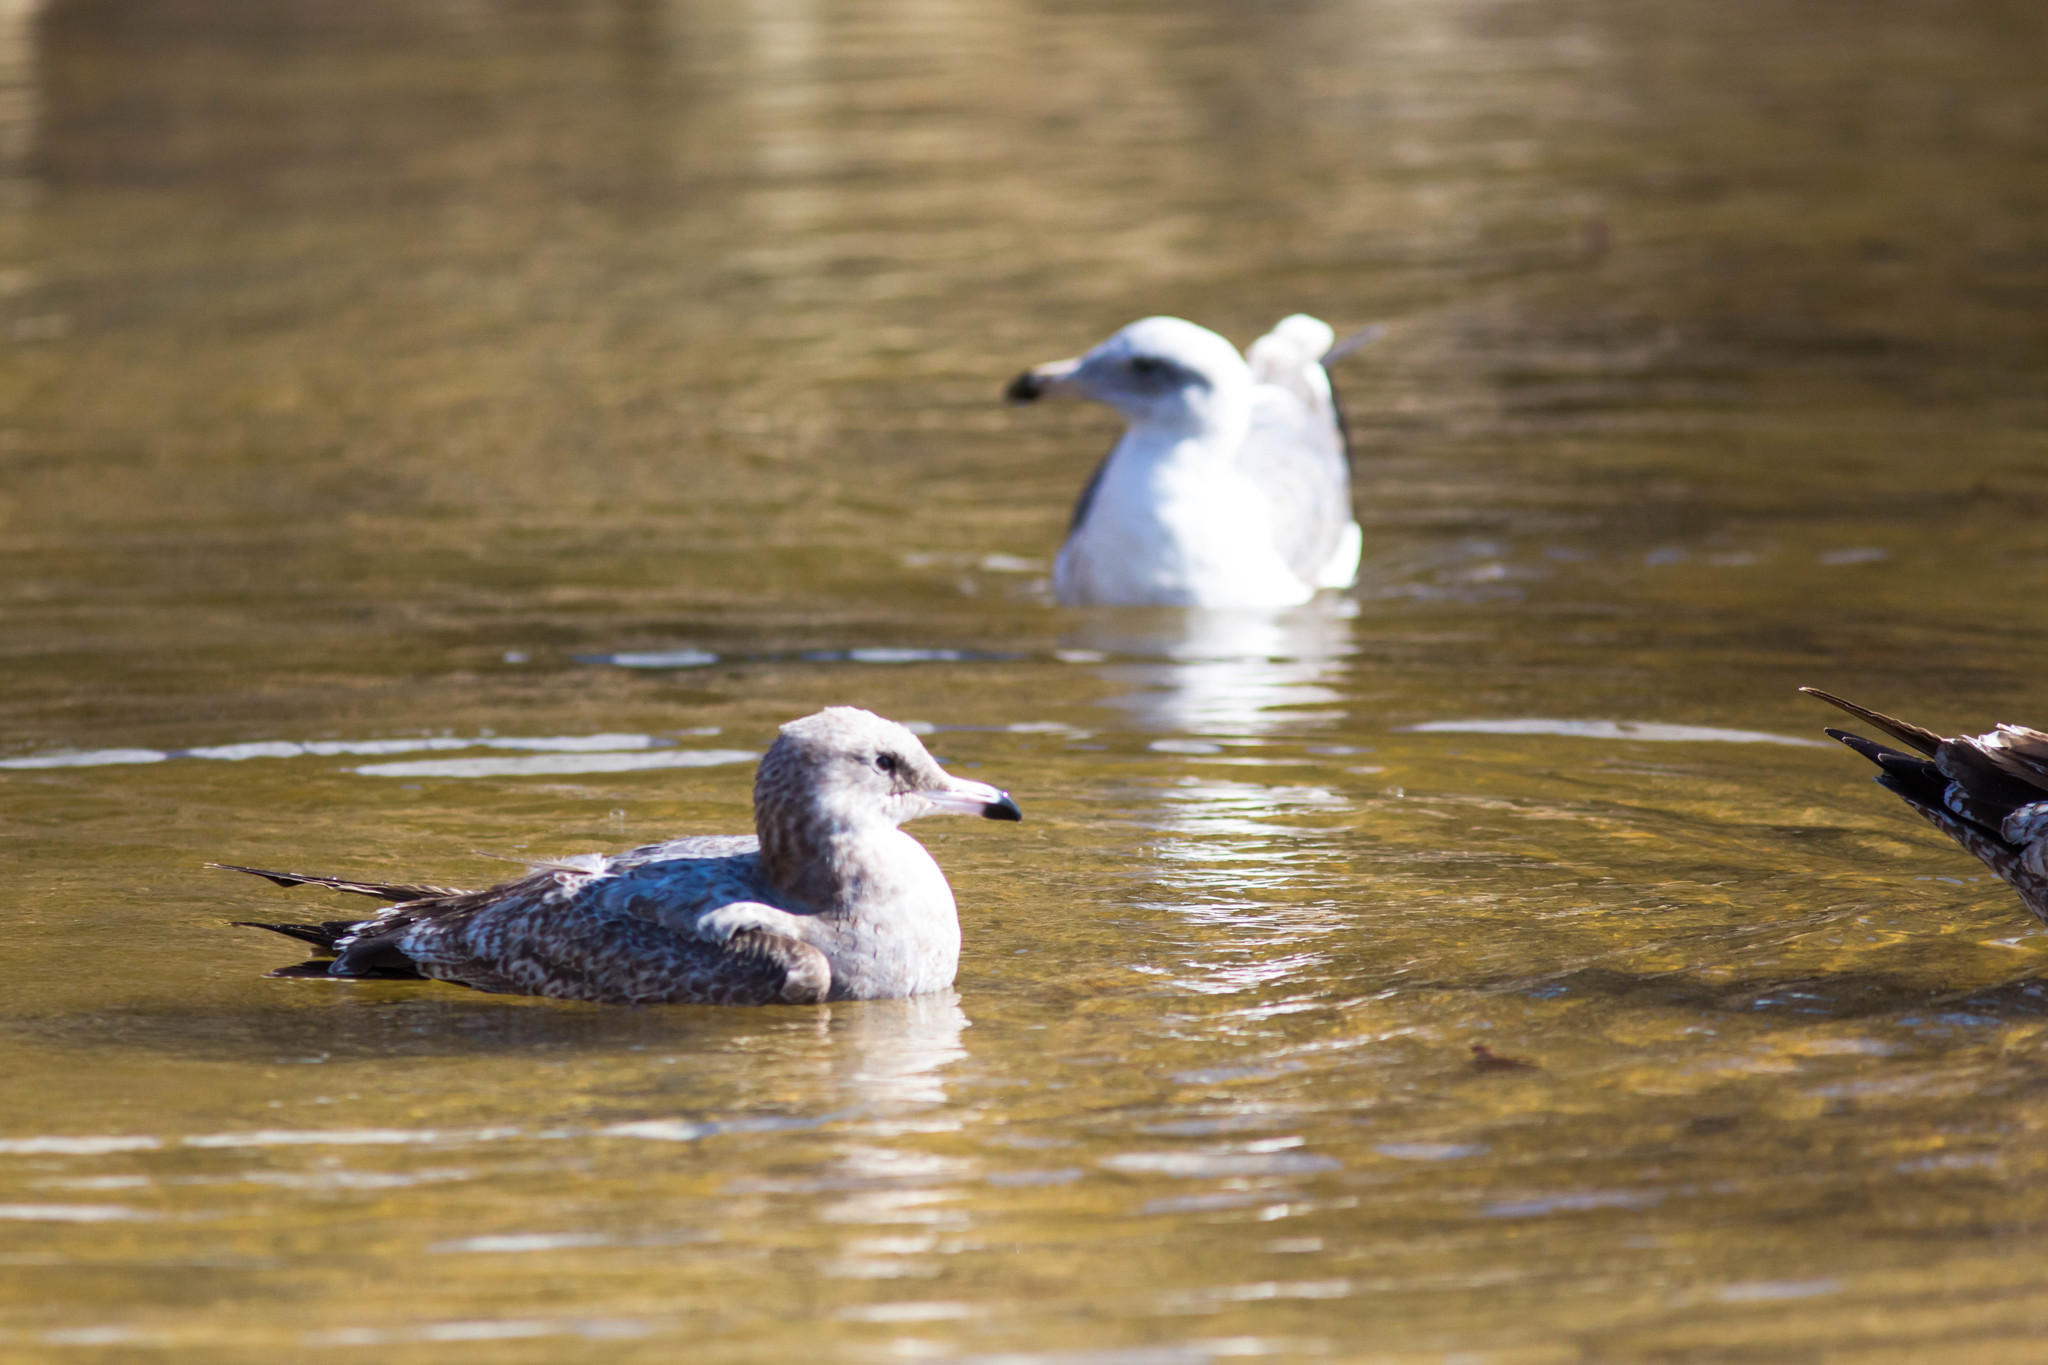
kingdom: Animalia
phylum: Chordata
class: Aves
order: Charadriiformes
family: Laridae
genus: Larus
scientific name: Larus californicus
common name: California gull
